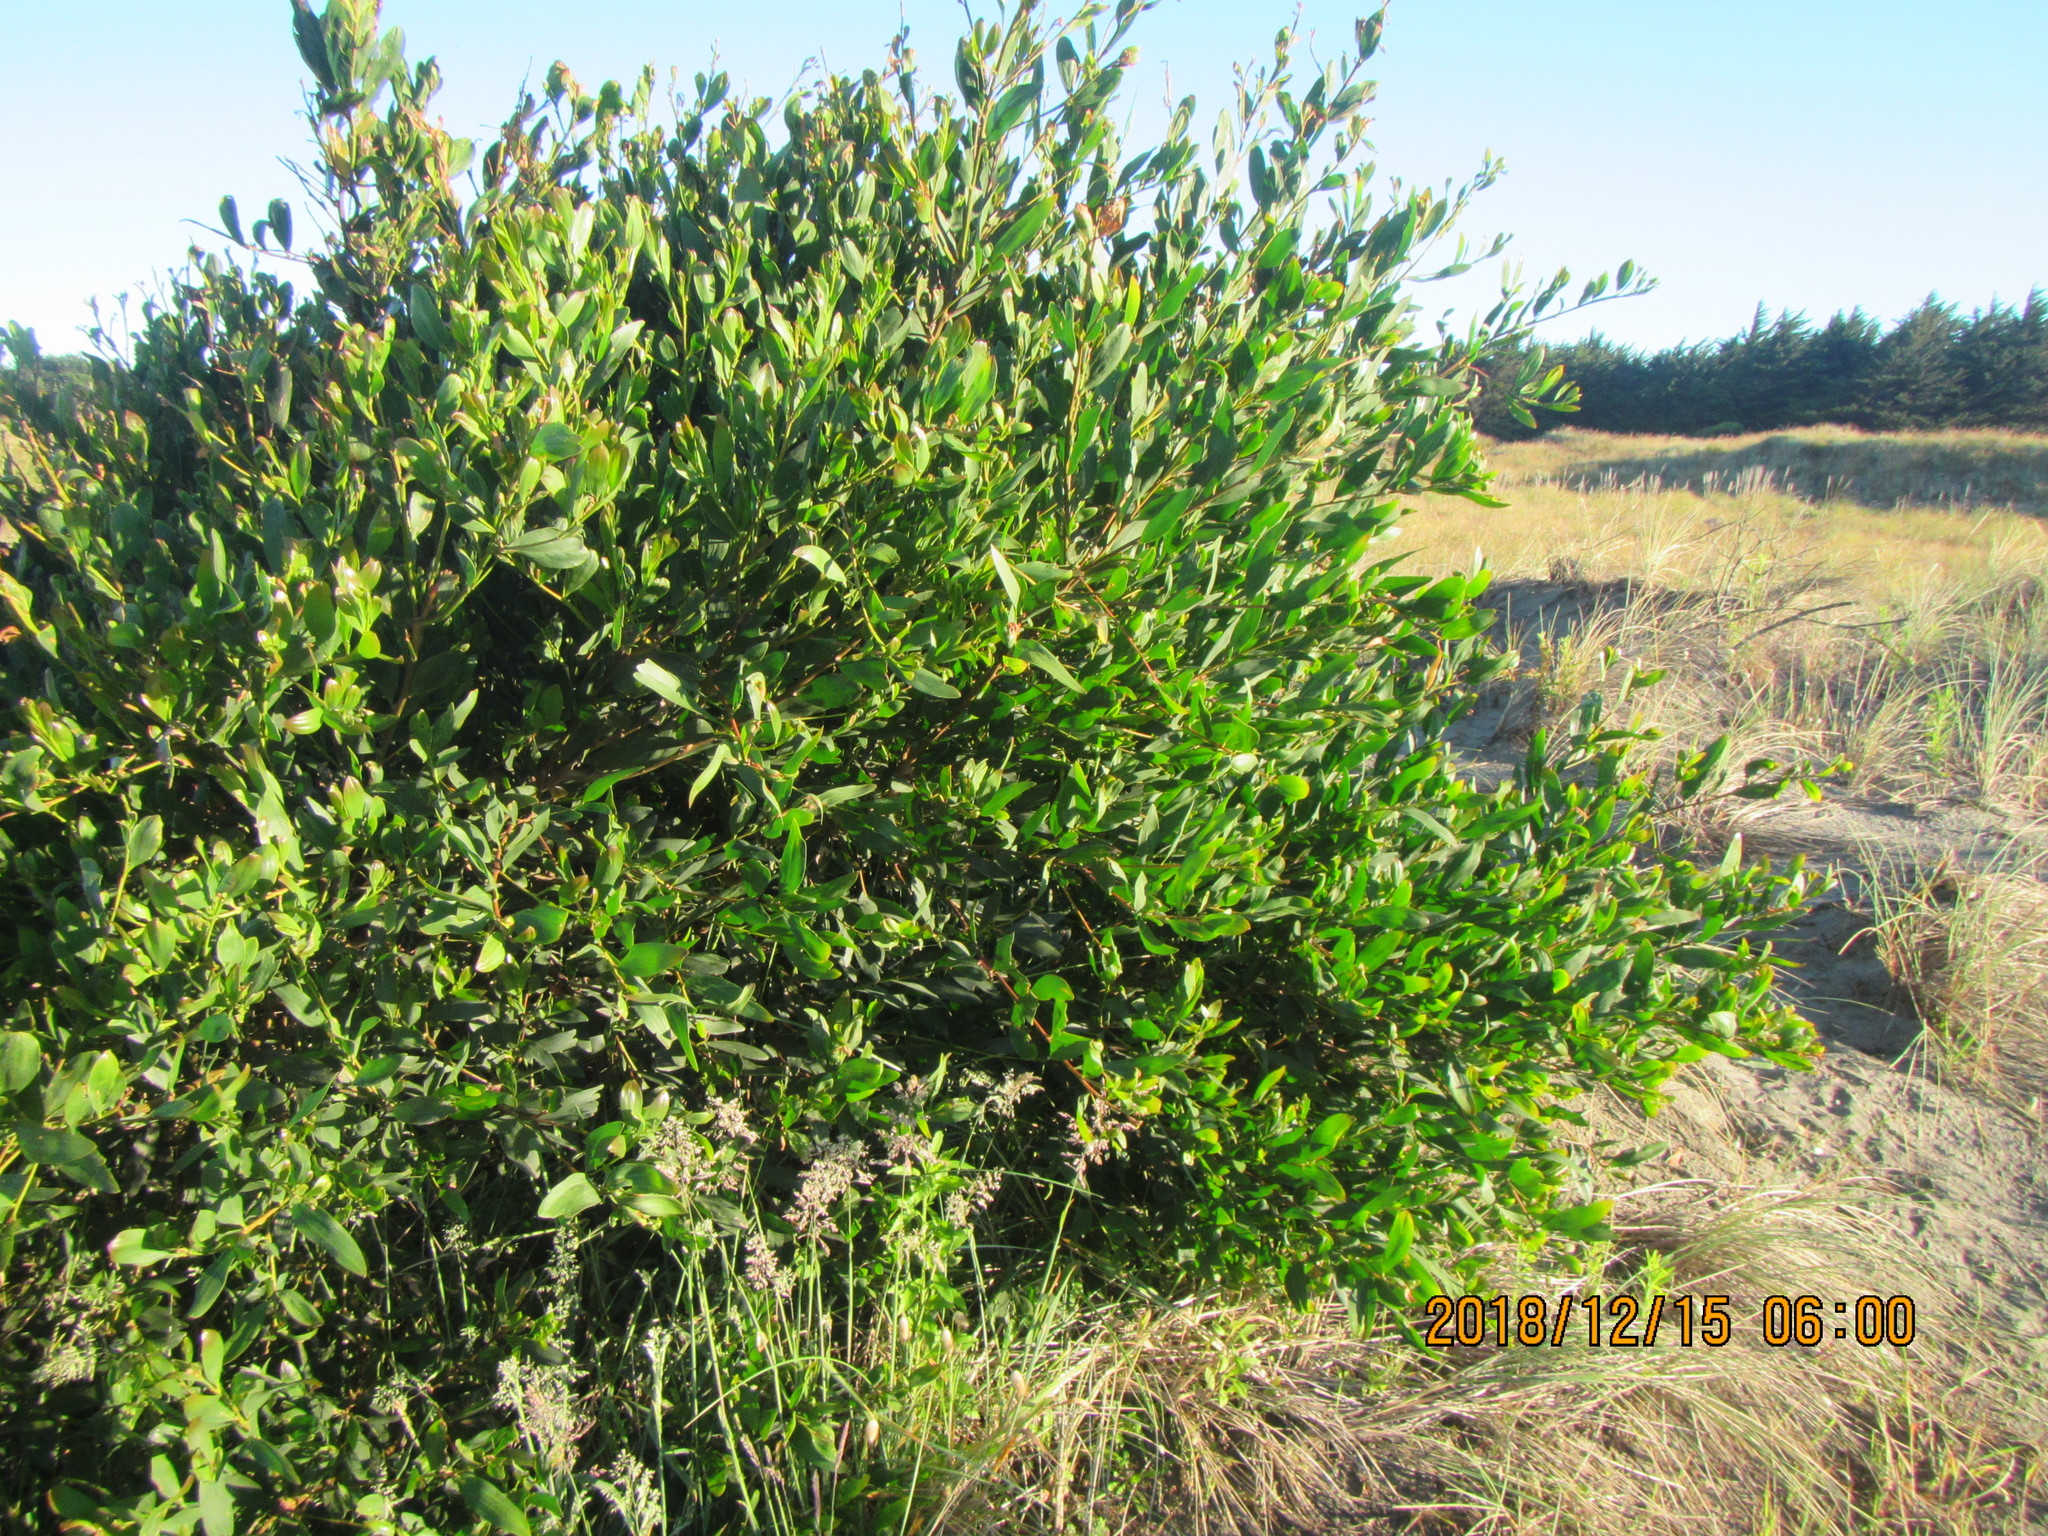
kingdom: Plantae
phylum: Tracheophyta
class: Magnoliopsida
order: Fabales
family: Fabaceae
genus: Acacia
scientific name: Acacia longifolia
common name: Sydney golden wattle
